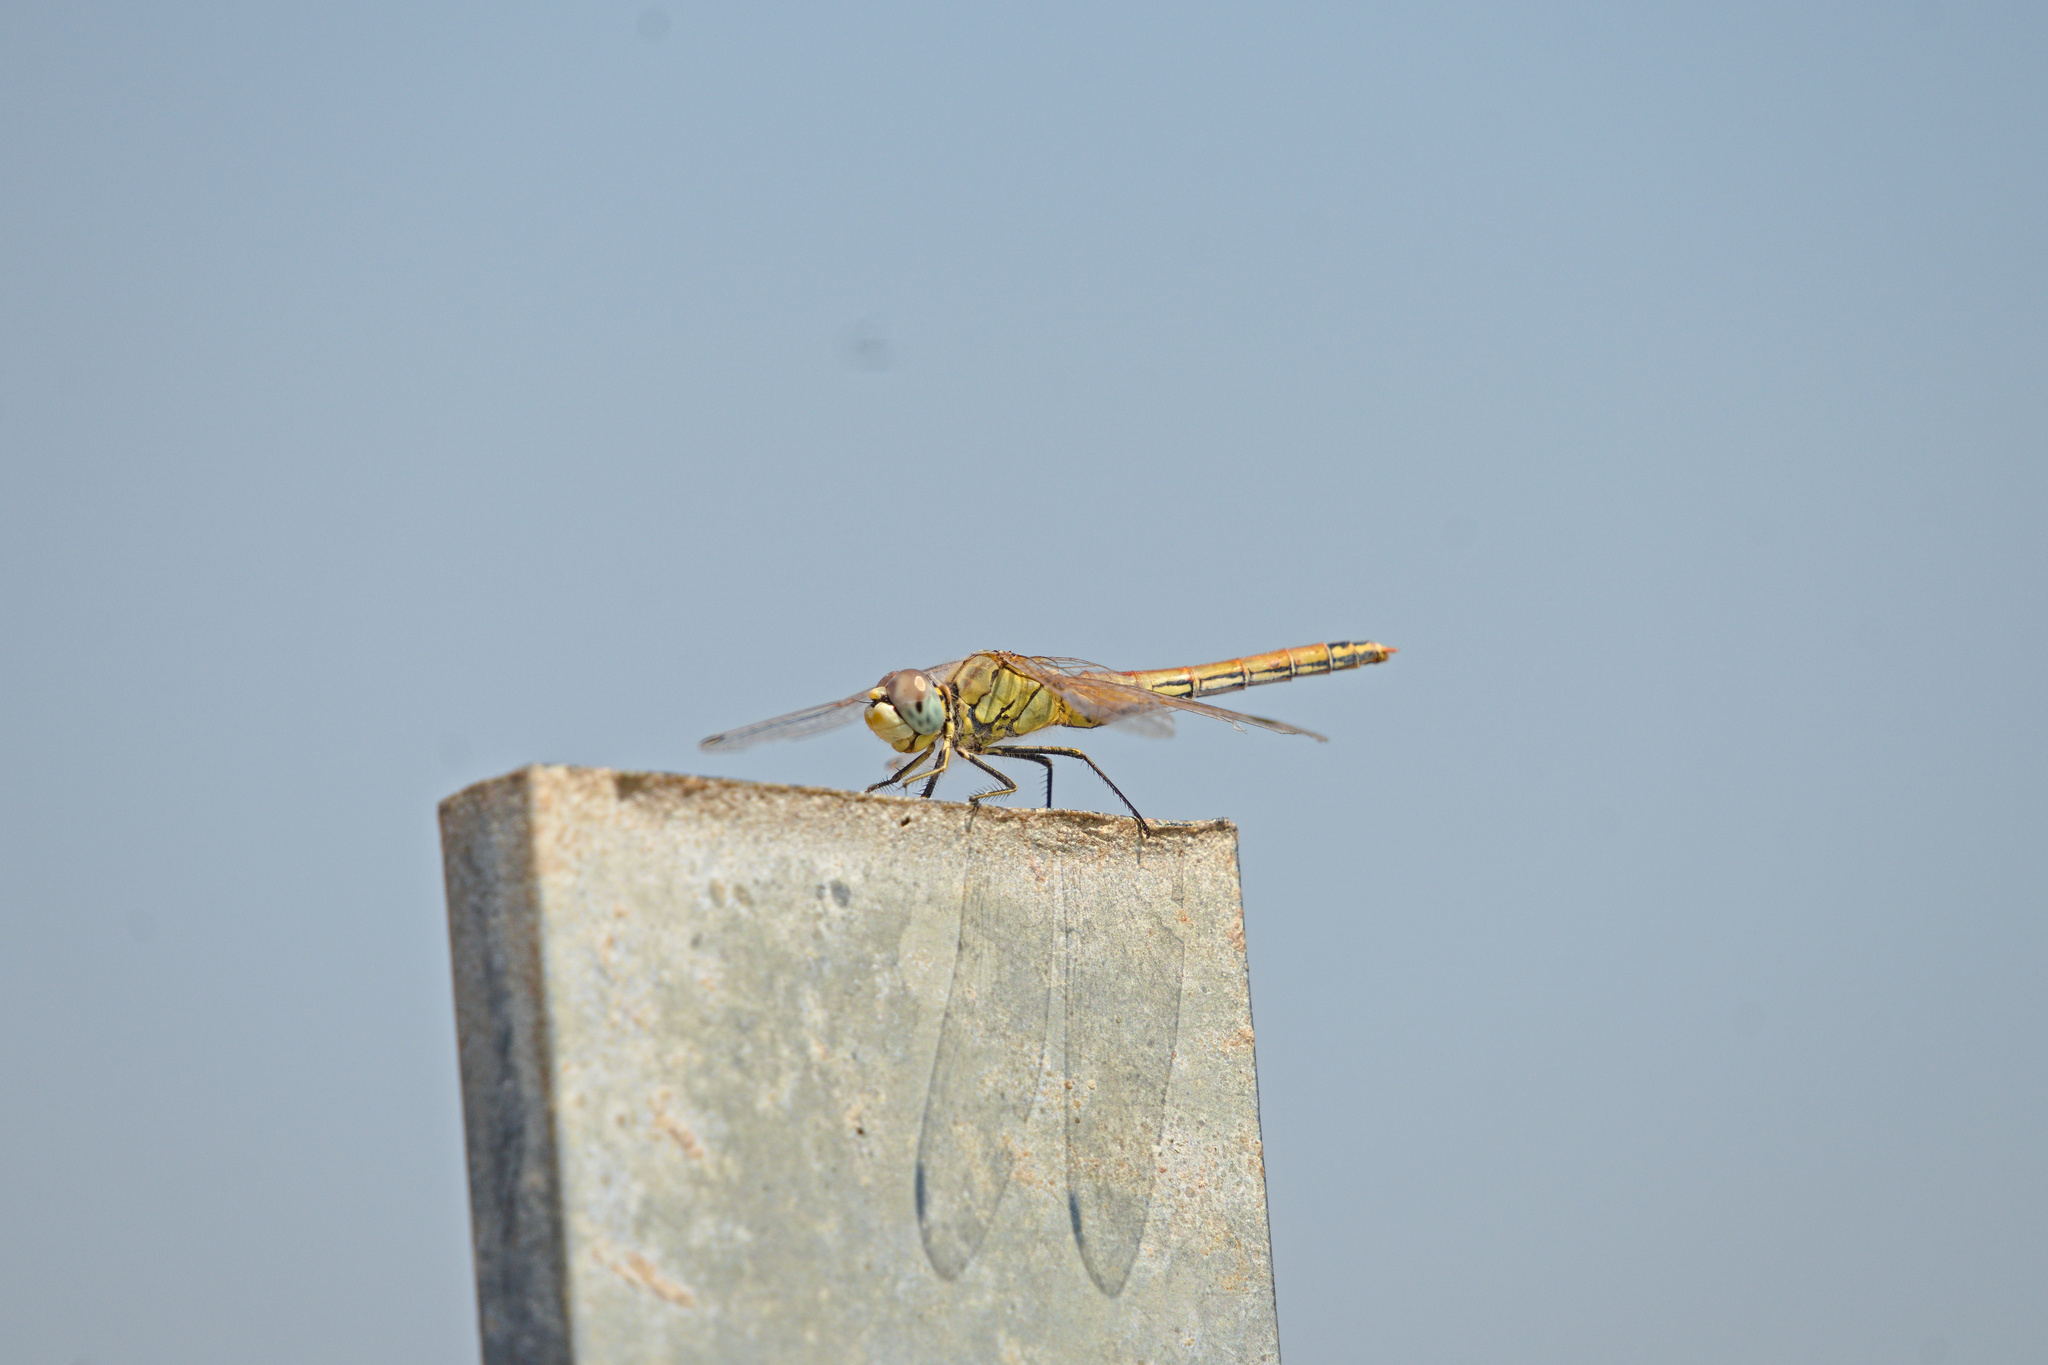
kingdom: Animalia
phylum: Arthropoda
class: Insecta
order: Odonata
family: Libellulidae
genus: Sympetrum
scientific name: Sympetrum fonscolombii
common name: Red-veined darter
